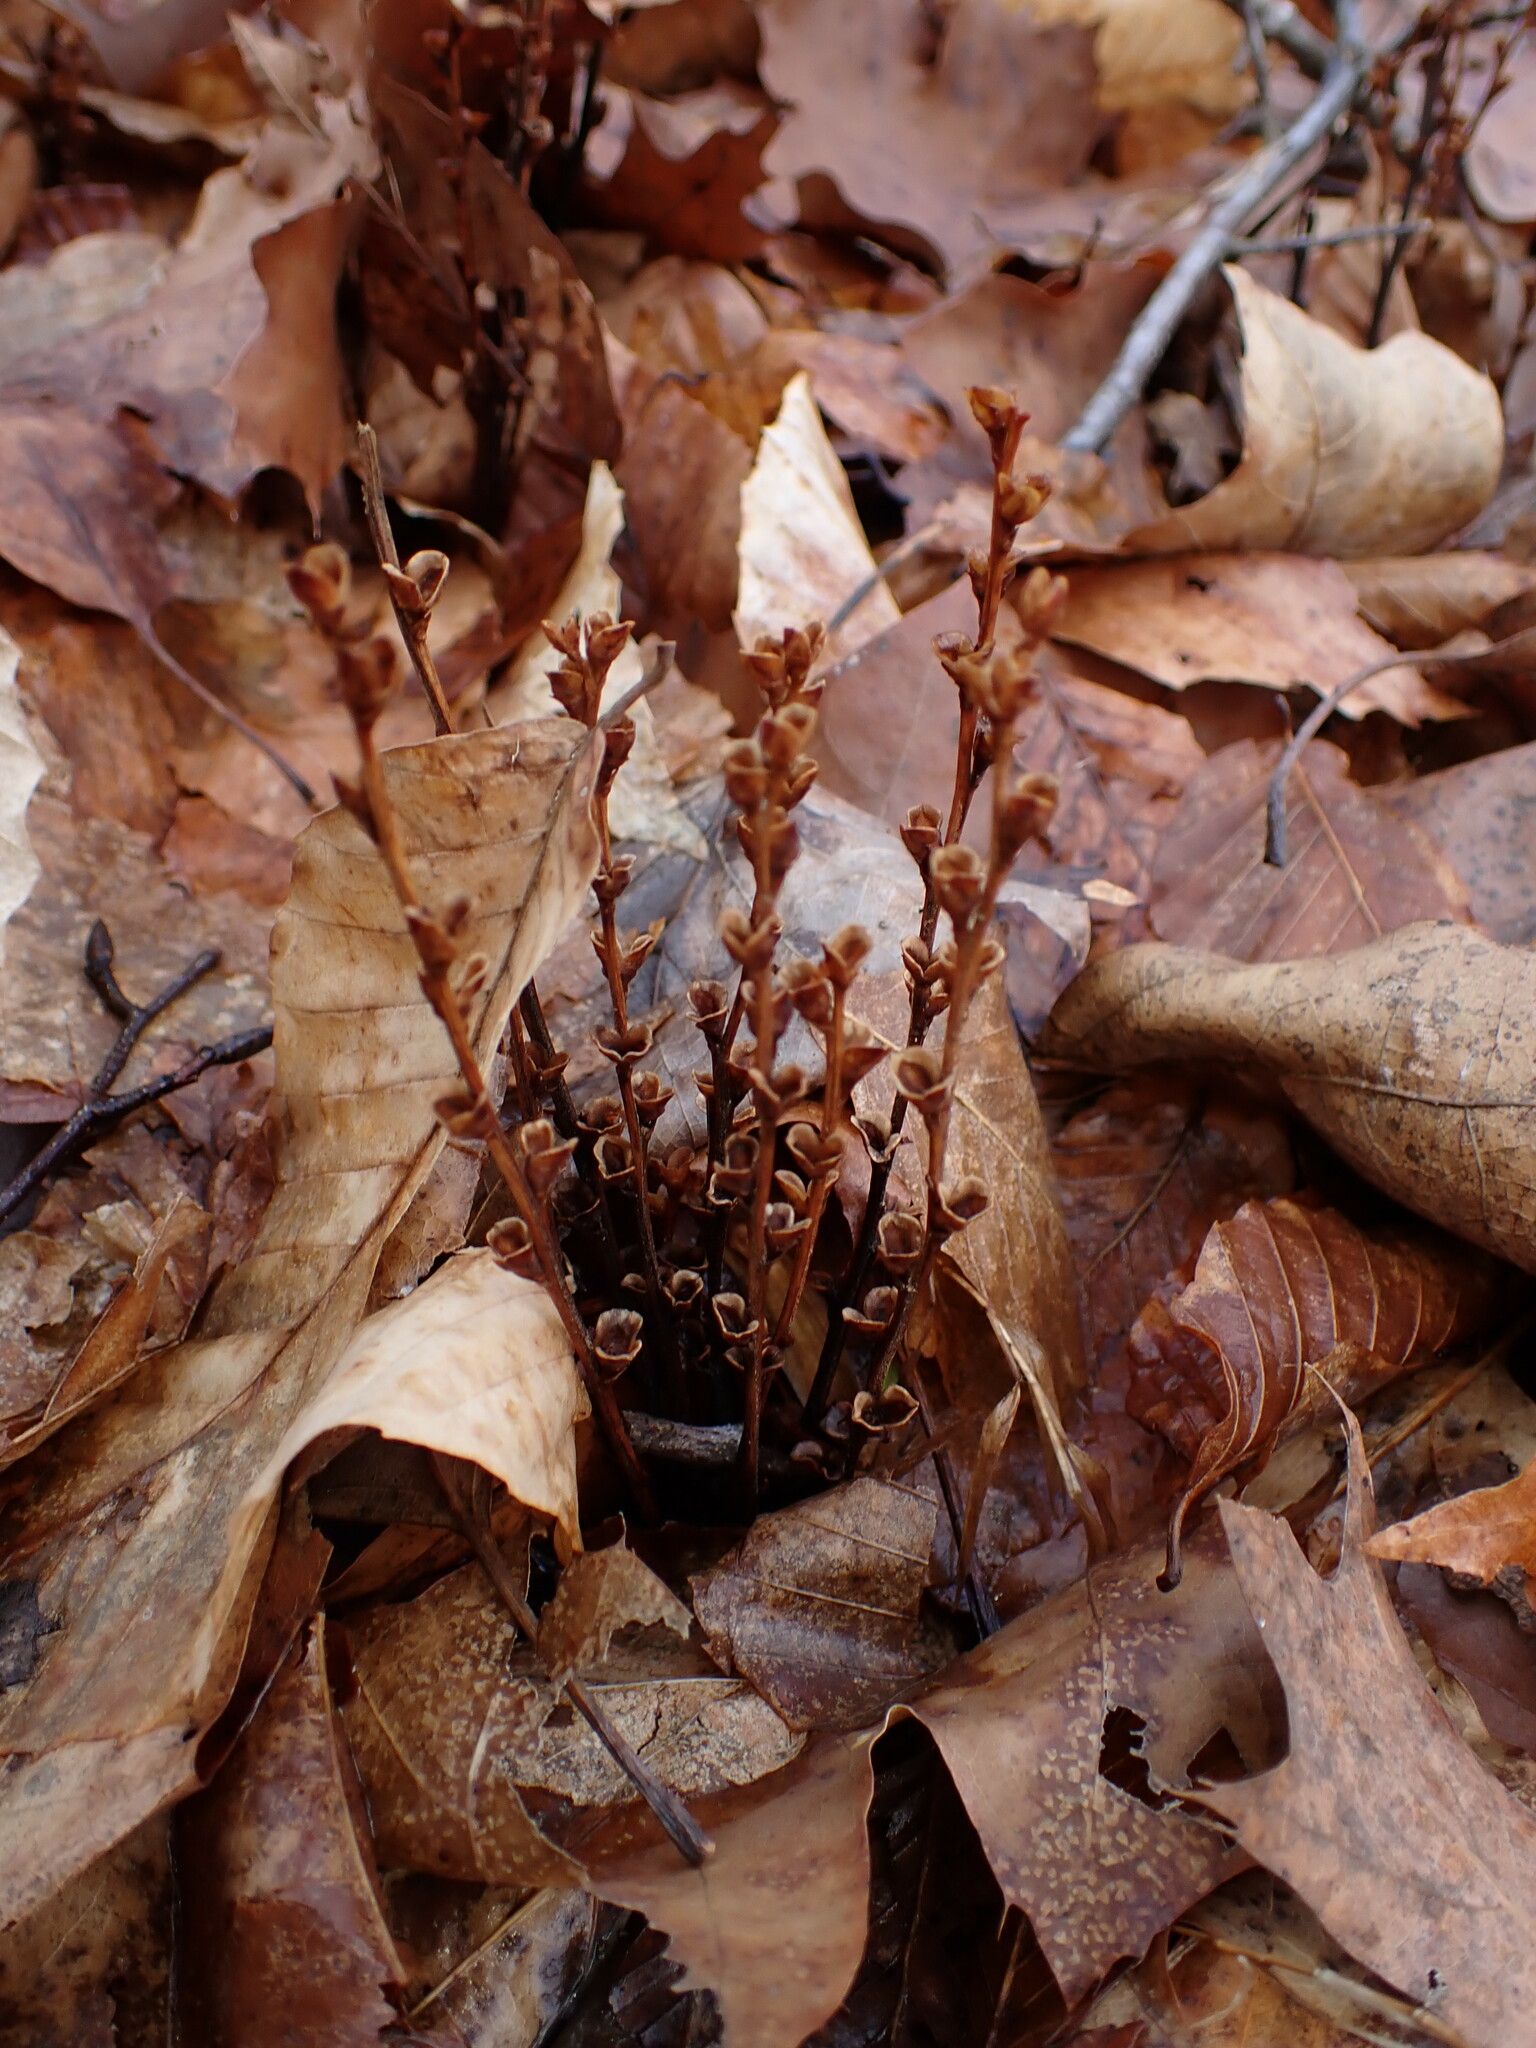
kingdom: Plantae
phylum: Tracheophyta
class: Magnoliopsida
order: Lamiales
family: Orobanchaceae
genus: Epifagus
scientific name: Epifagus virginiana
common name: Beechdrops
